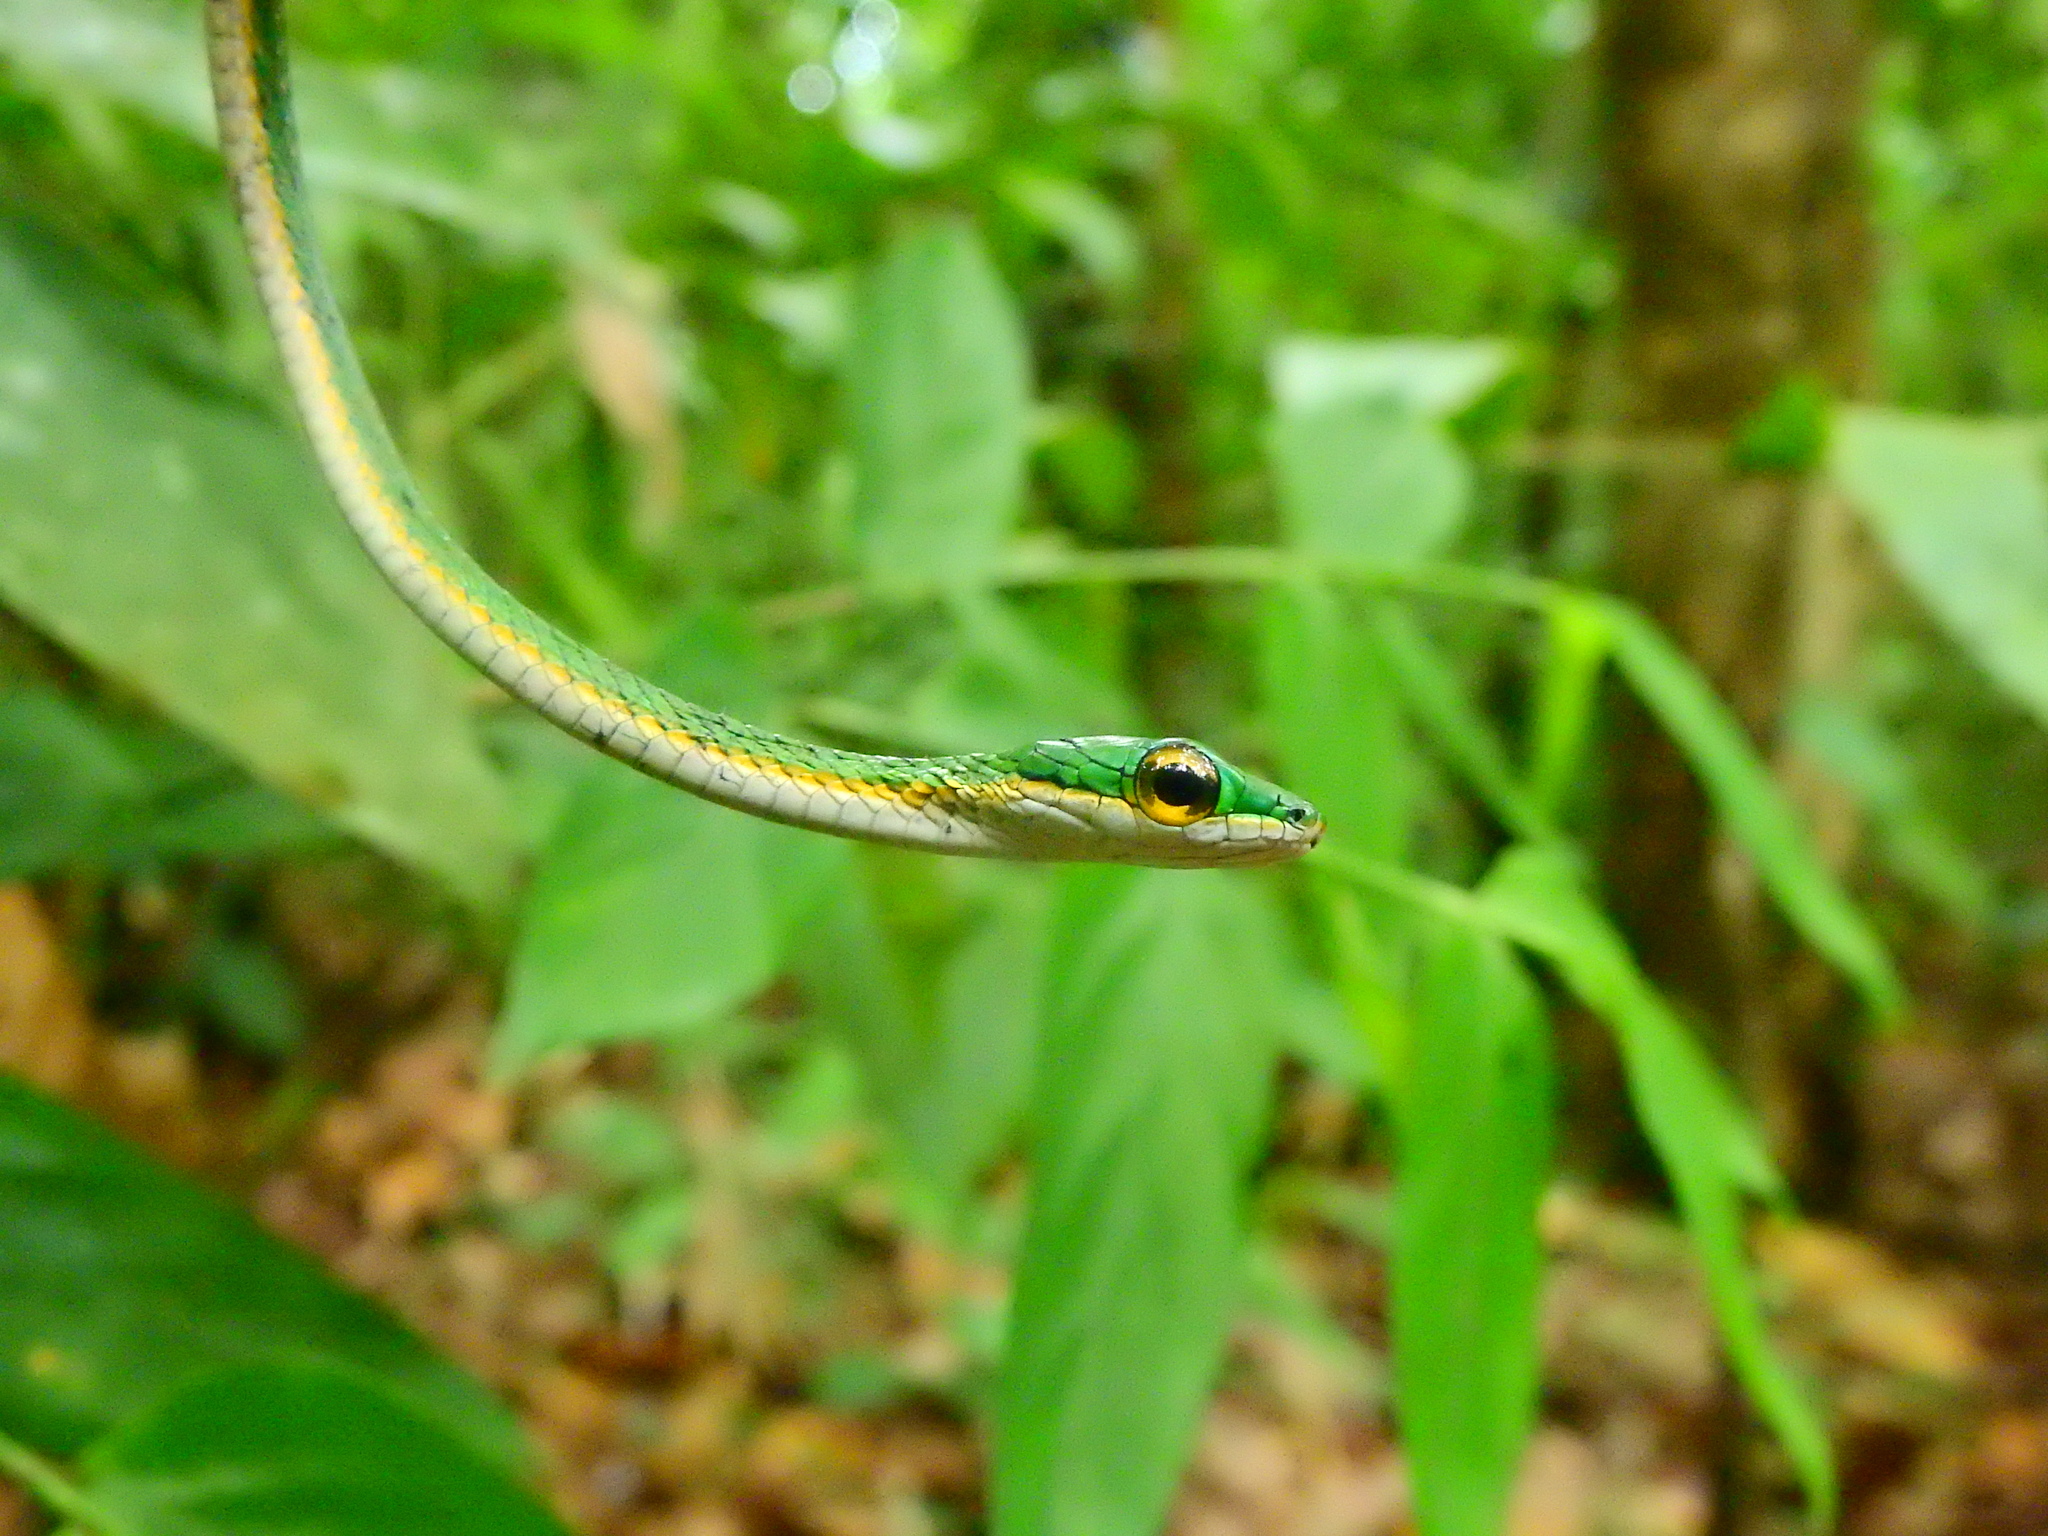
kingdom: Animalia
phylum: Chordata
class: Squamata
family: Colubridae
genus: Leptophis
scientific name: Leptophis mexicanus
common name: Mexican parrot snake
